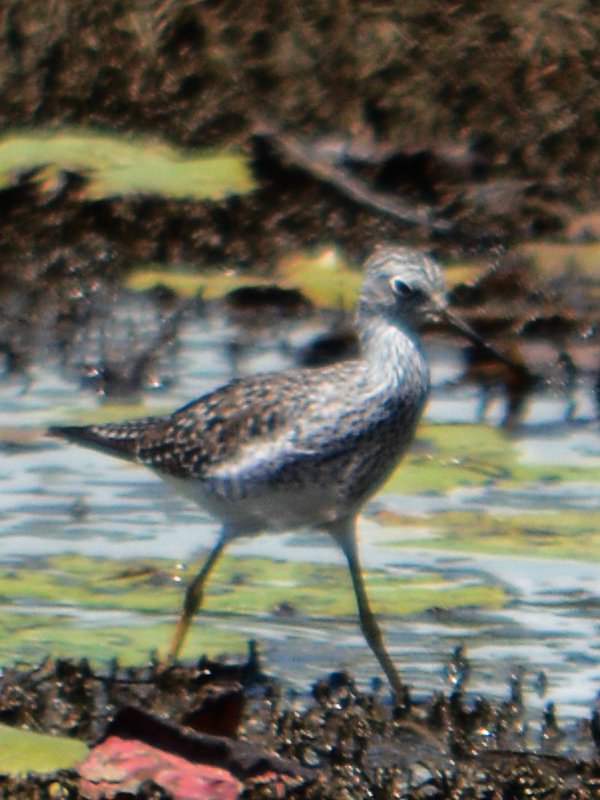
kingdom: Animalia
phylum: Chordata
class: Aves
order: Charadriiformes
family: Scolopacidae
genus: Tringa
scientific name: Tringa flavipes
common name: Lesser yellowlegs
